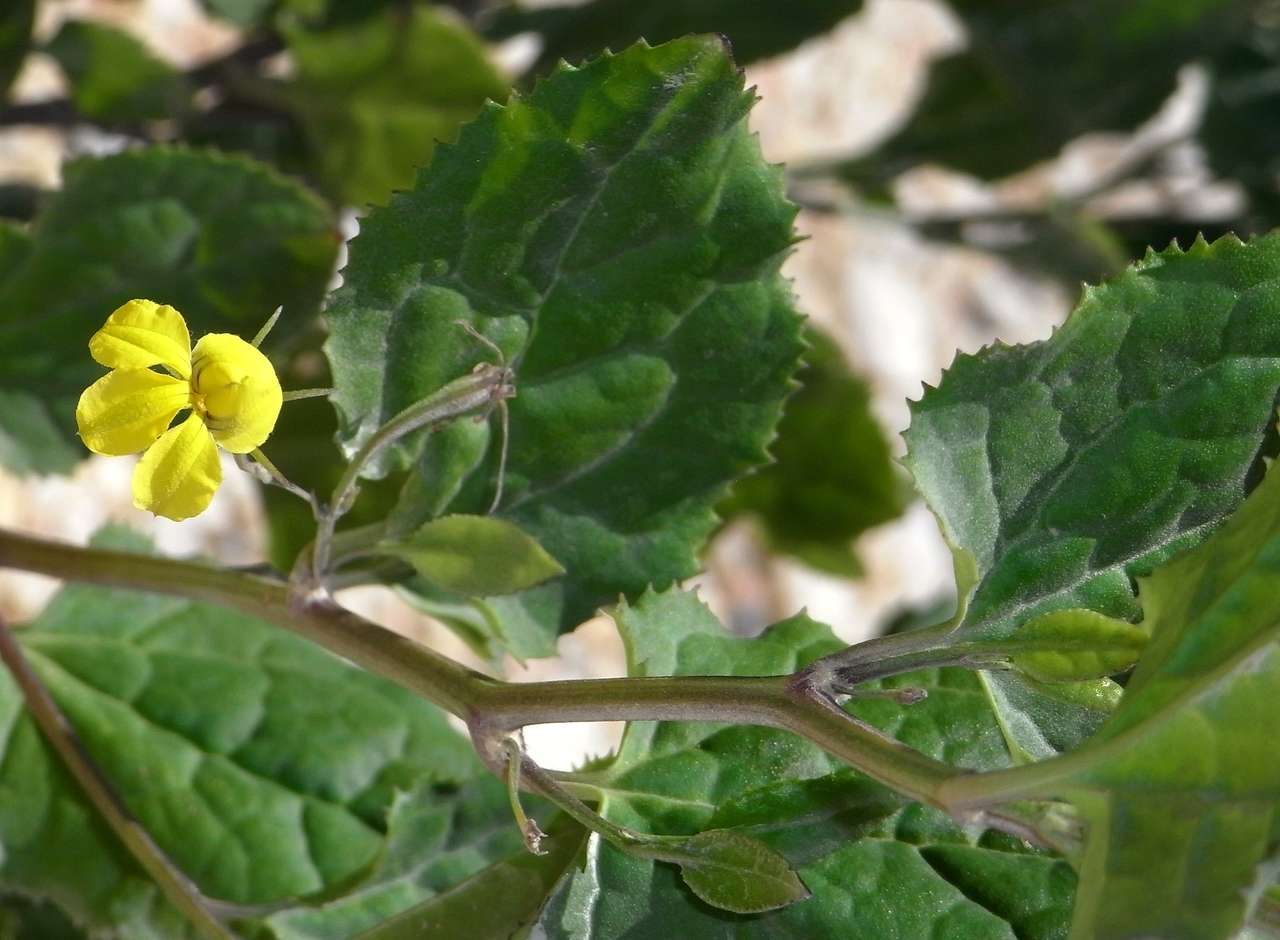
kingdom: Plantae
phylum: Tracheophyta
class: Magnoliopsida
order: Asterales
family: Goodeniaceae
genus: Goodenia
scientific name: Goodenia ovata
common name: Hop goodenia
